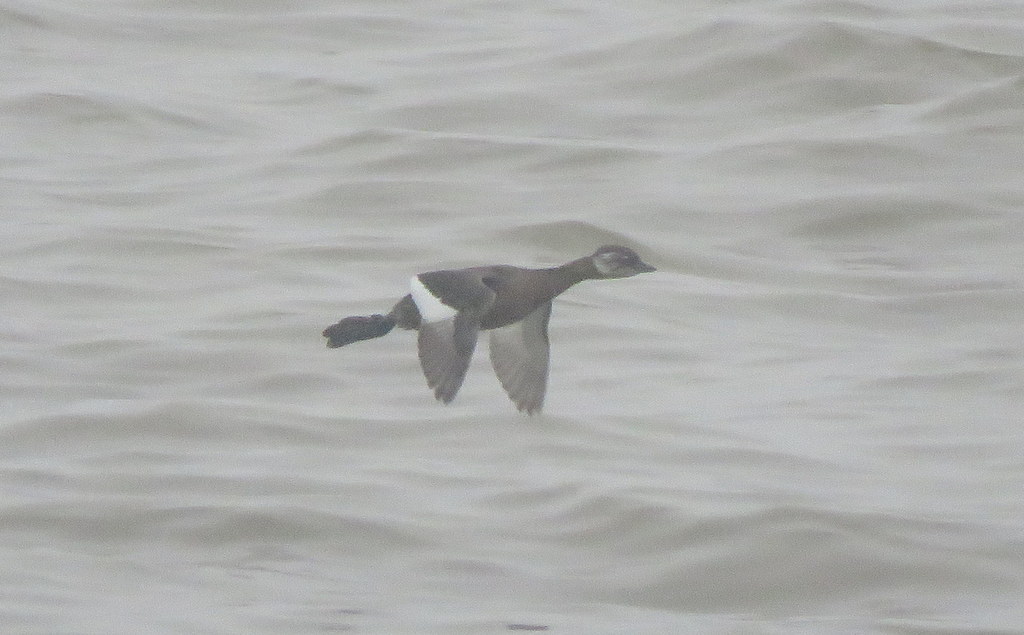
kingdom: Animalia
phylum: Chordata
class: Aves
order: Podicipediformes
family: Podicipedidae
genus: Rollandia
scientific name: Rollandia rolland
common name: White-tufted grebe
